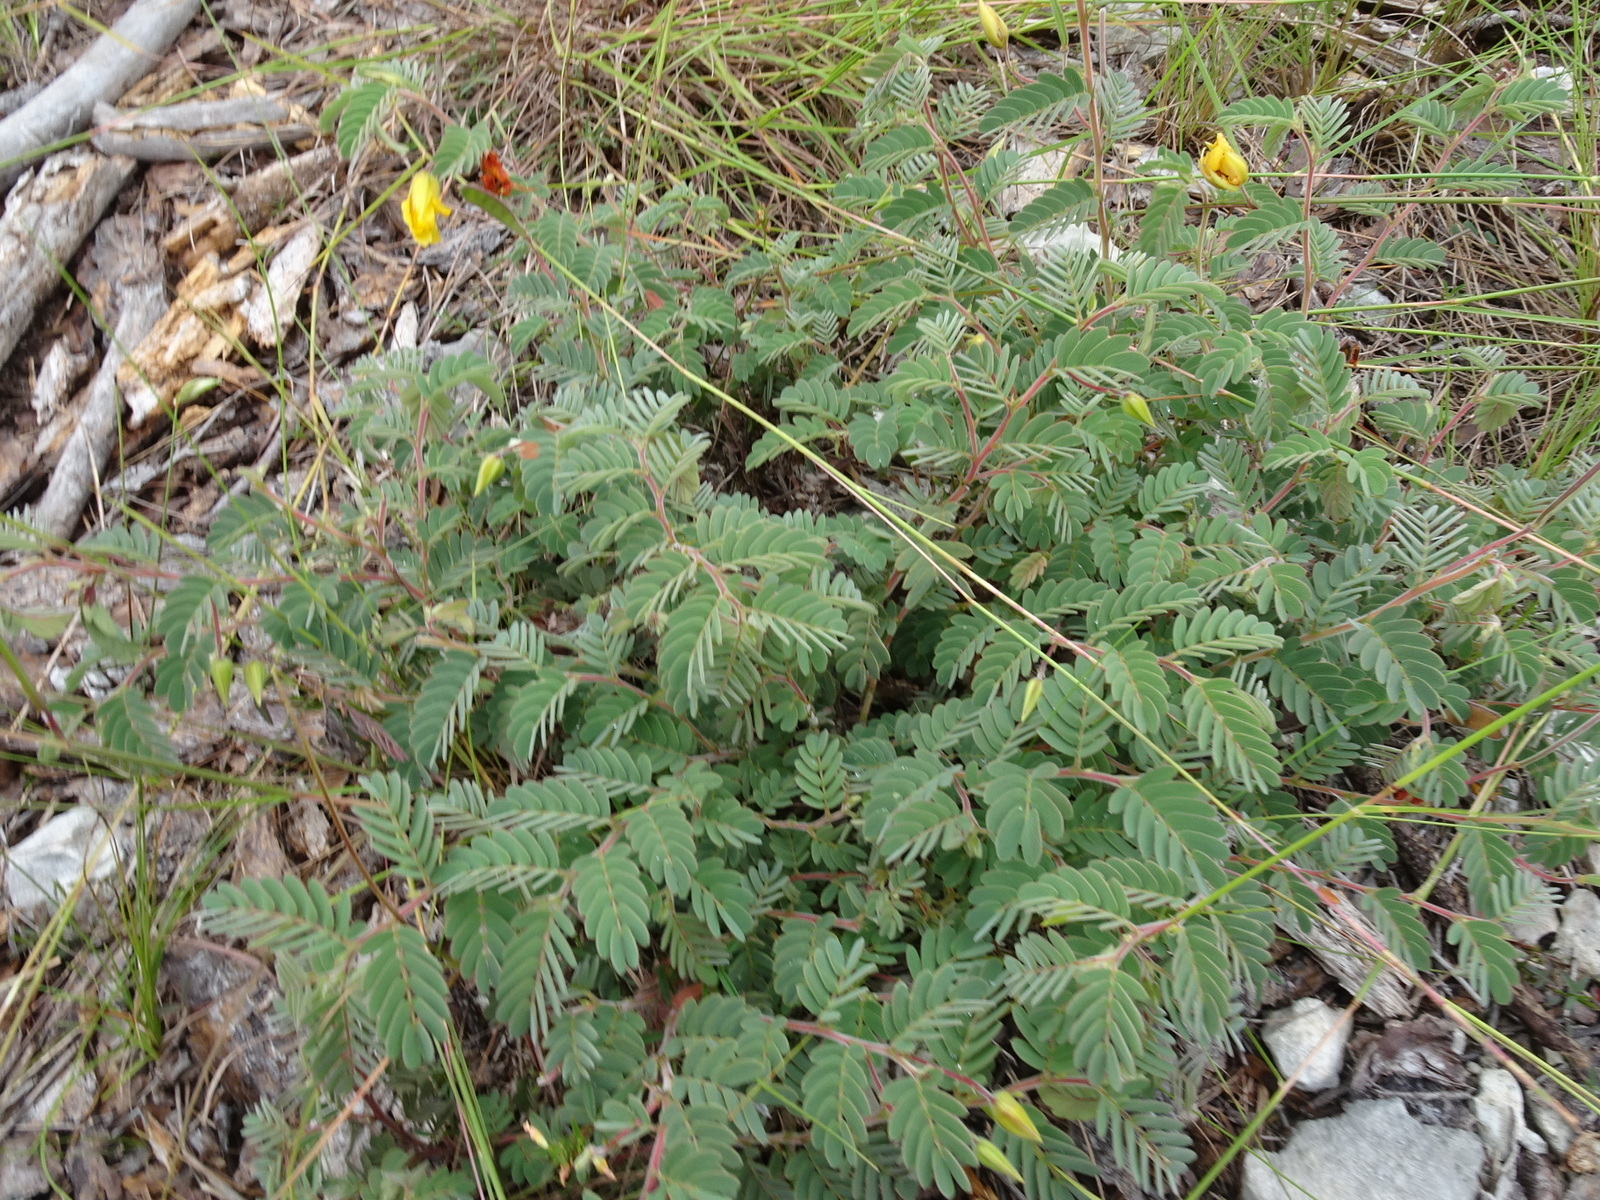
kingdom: Plantae
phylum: Tracheophyta
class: Magnoliopsida
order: Fabales
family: Fabaceae
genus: Chamaecrista
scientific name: Chamaecrista lineata
